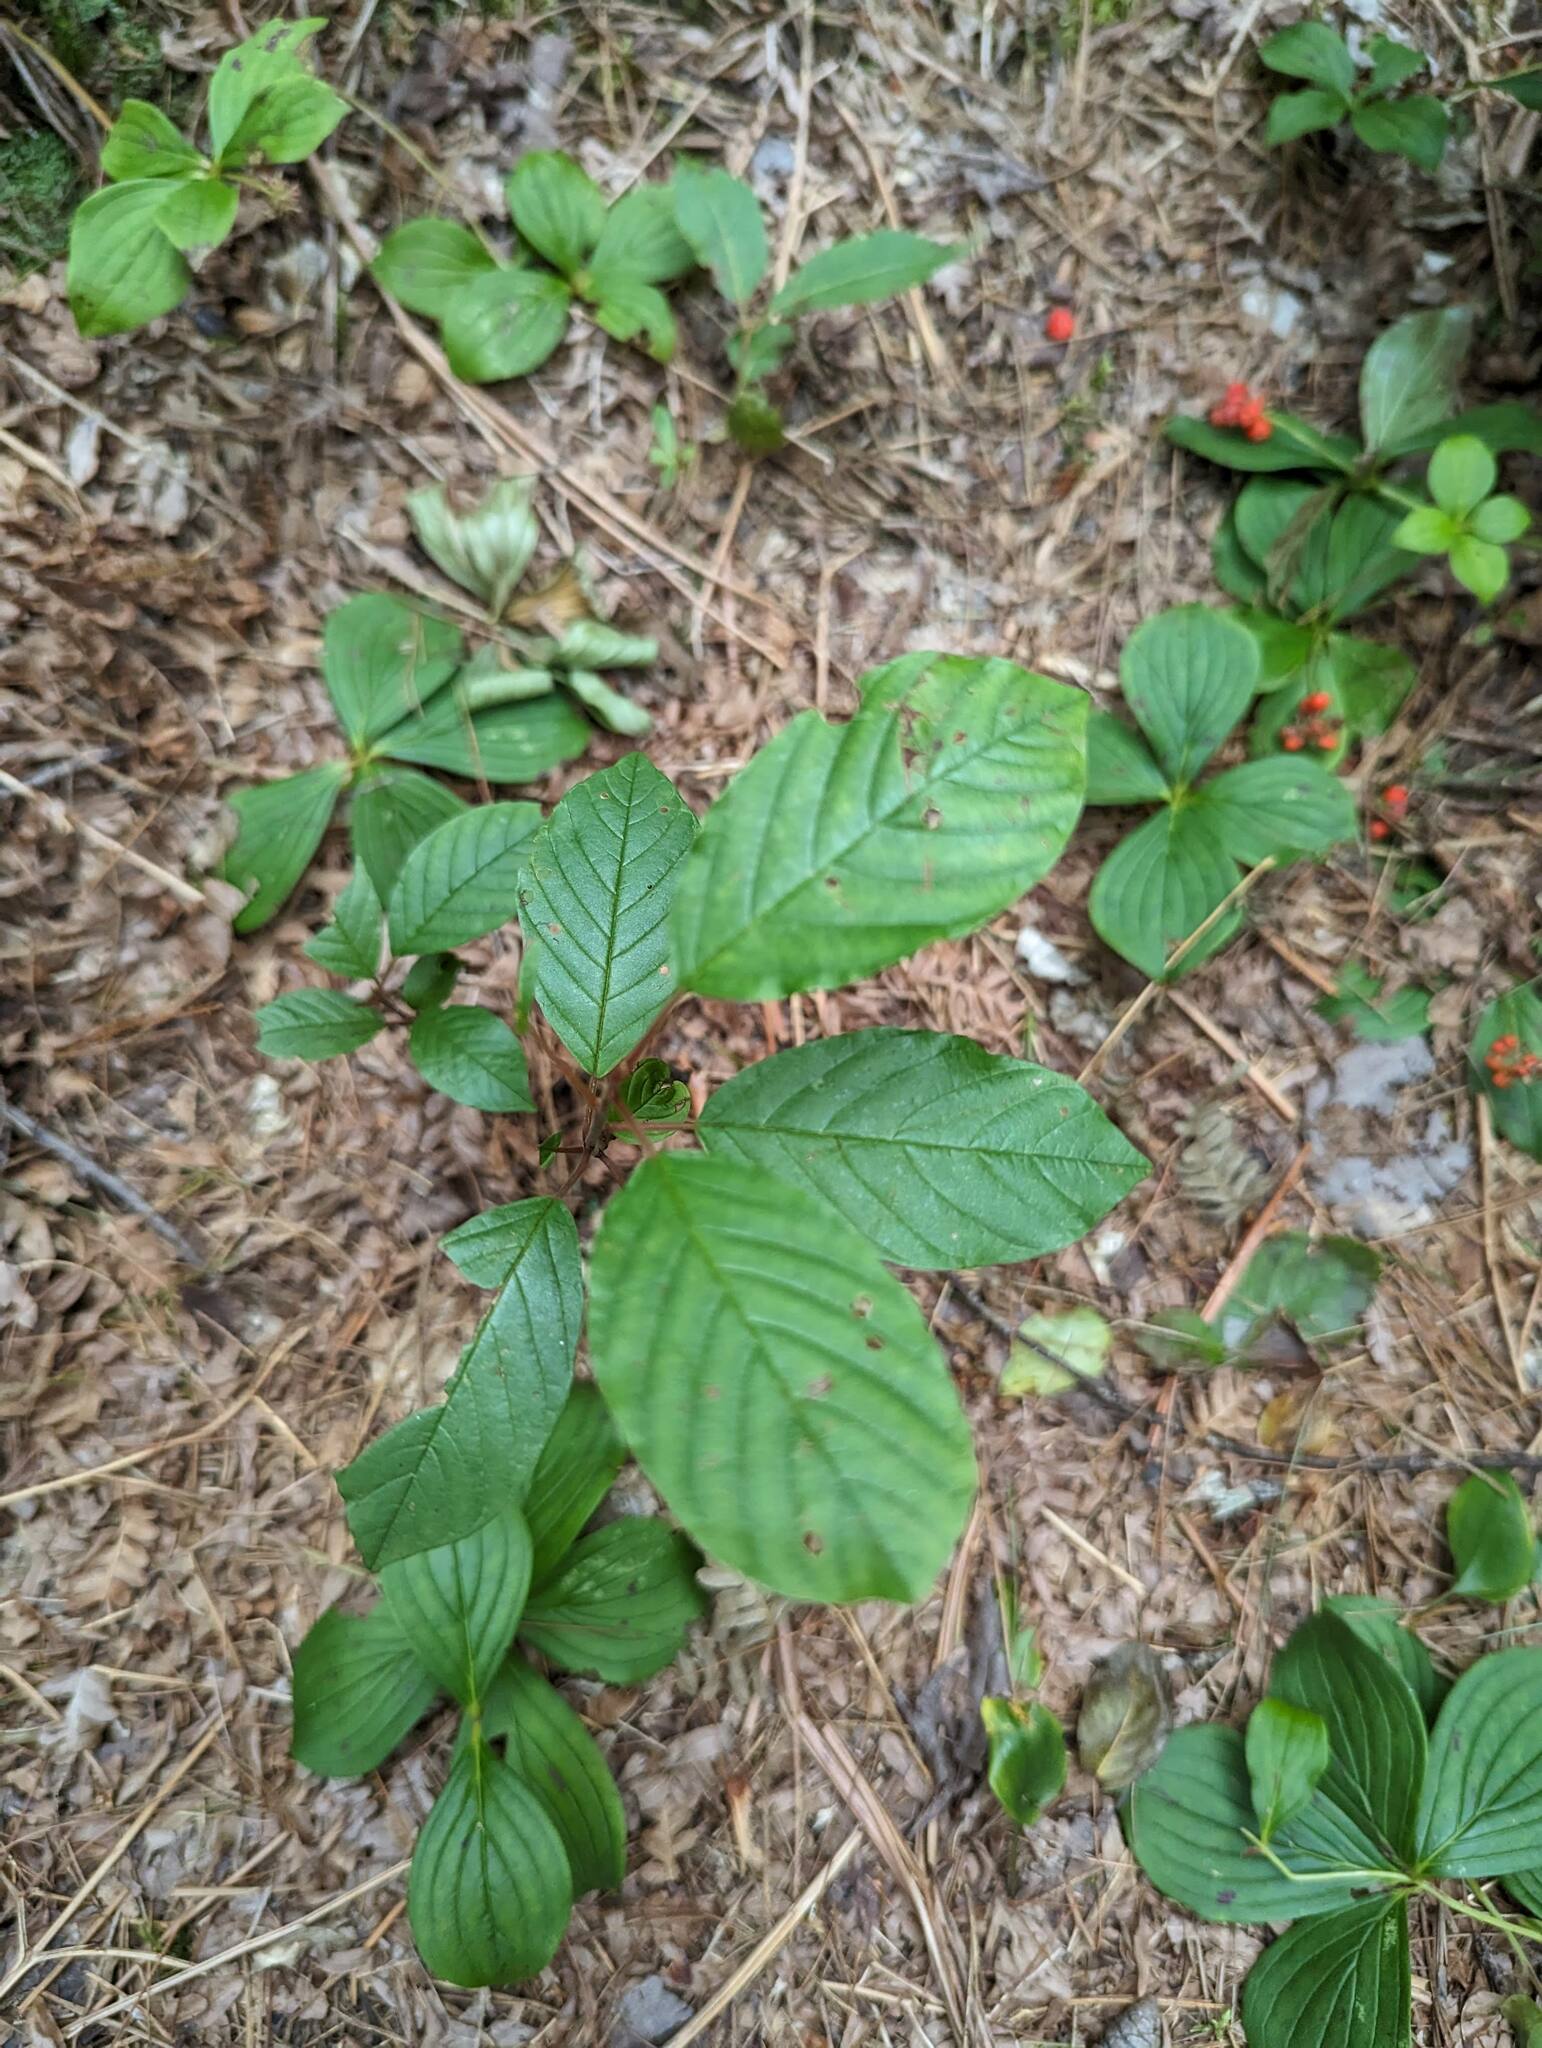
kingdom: Plantae
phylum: Tracheophyta
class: Magnoliopsida
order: Rosales
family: Rhamnaceae
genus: Frangula
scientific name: Frangula alnus
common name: Alder buckthorn
